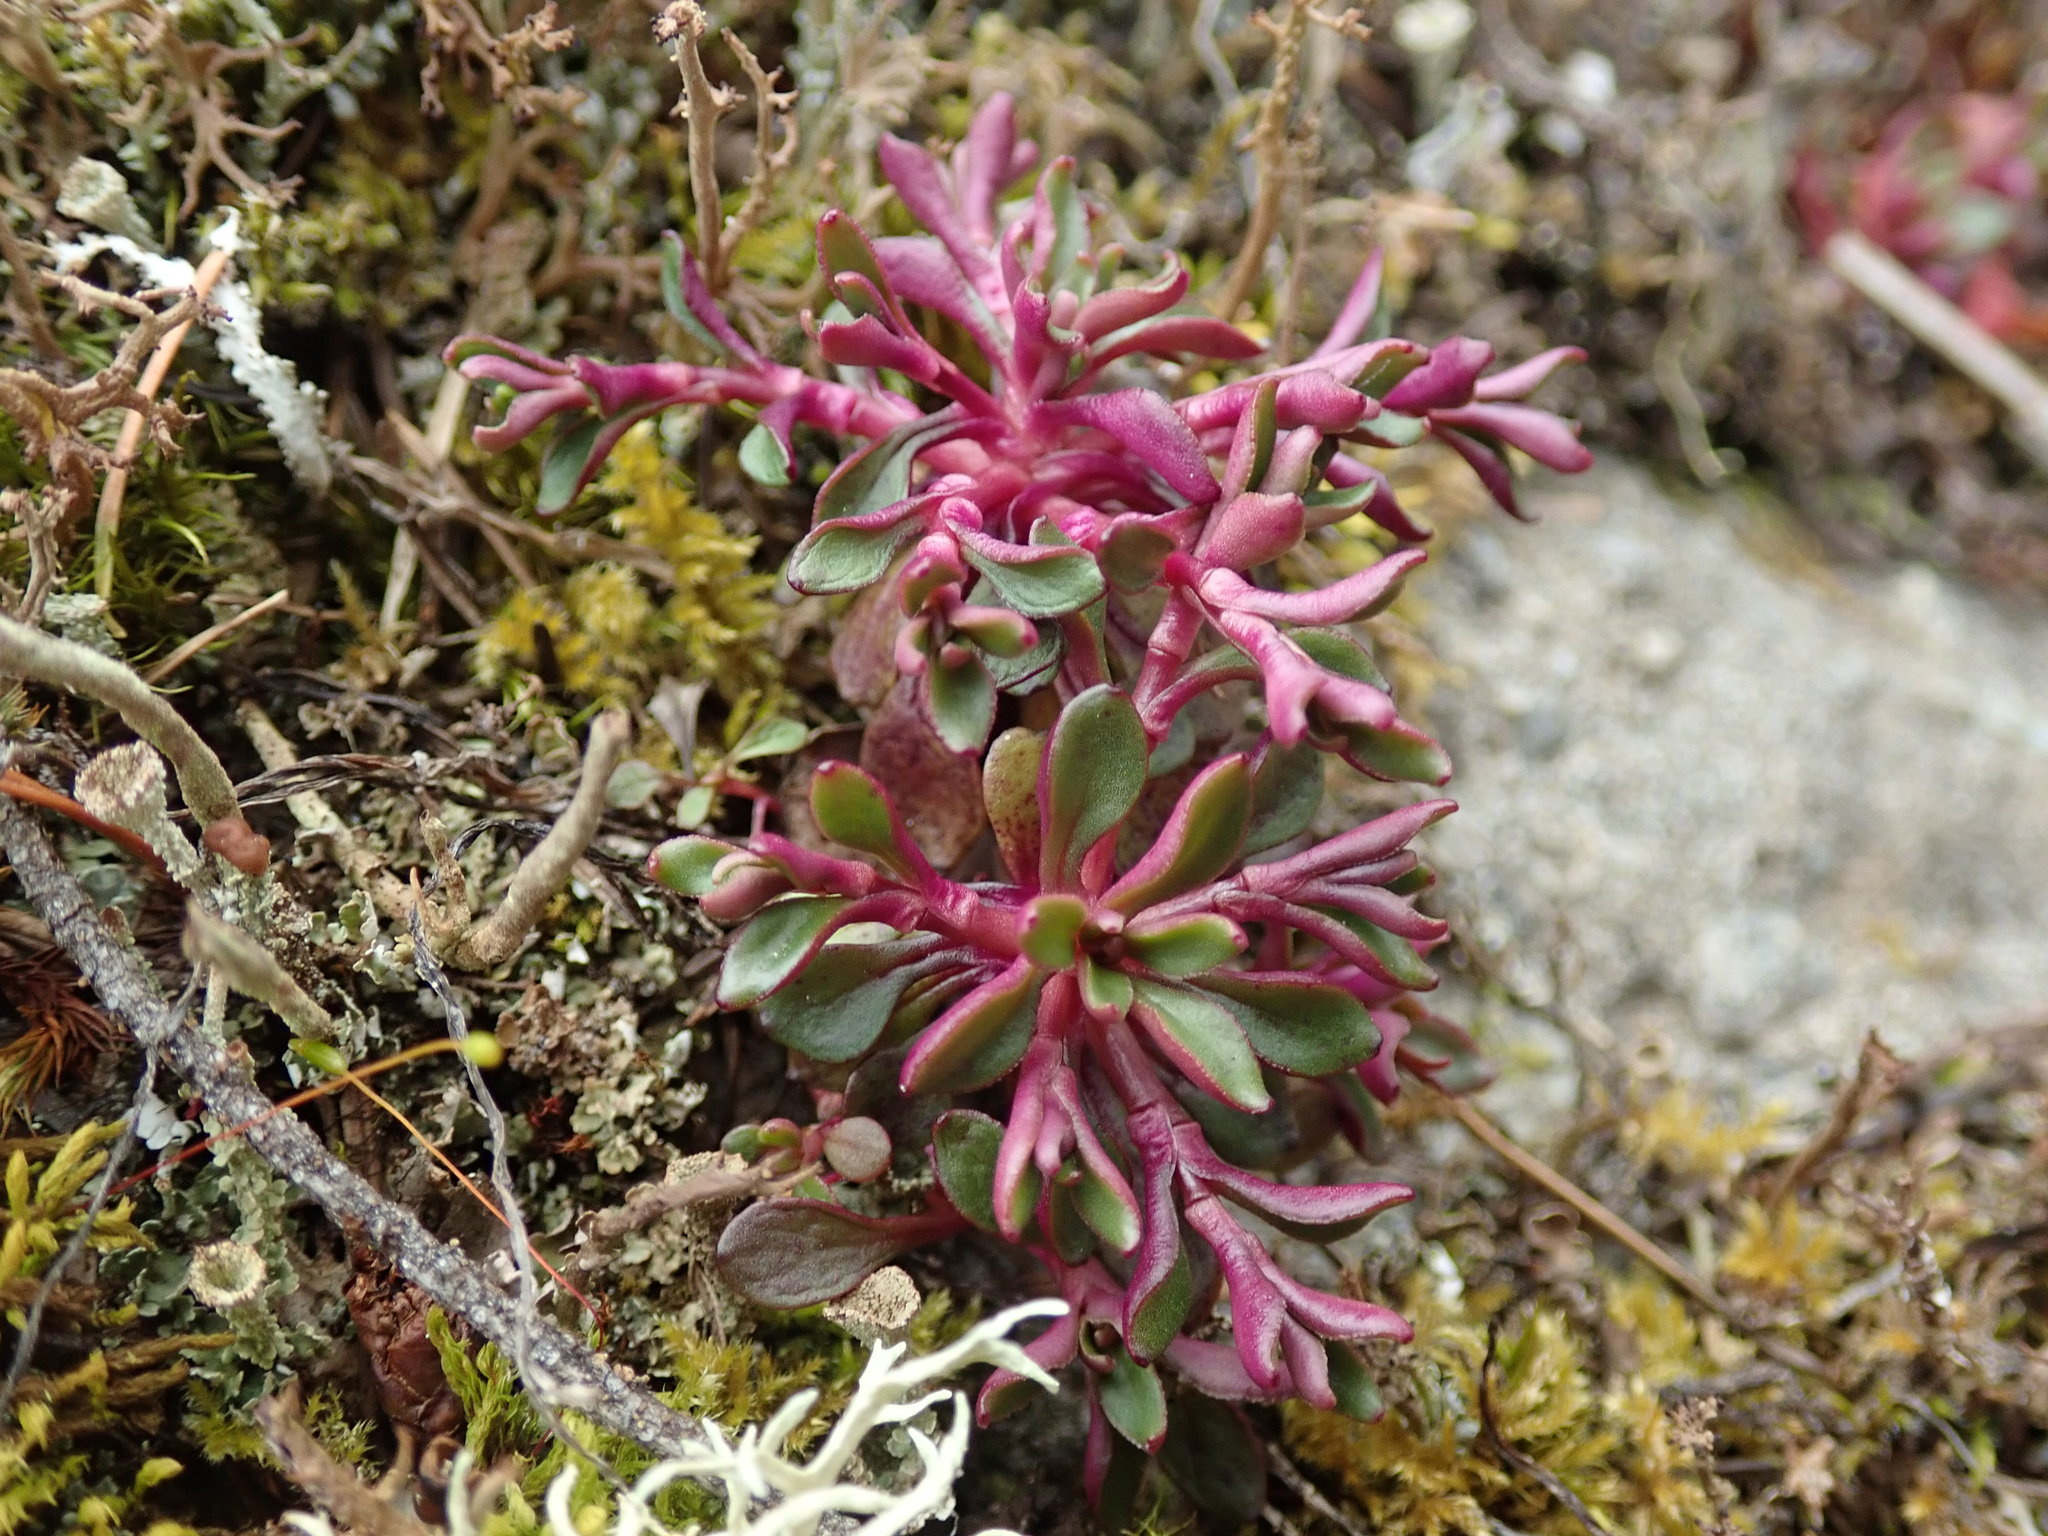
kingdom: Plantae
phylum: Tracheophyta
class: Magnoliopsida
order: Caryophyllales
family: Montiaceae
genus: Montia
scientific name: Montia parvifolia
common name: Small-leaved blinks
